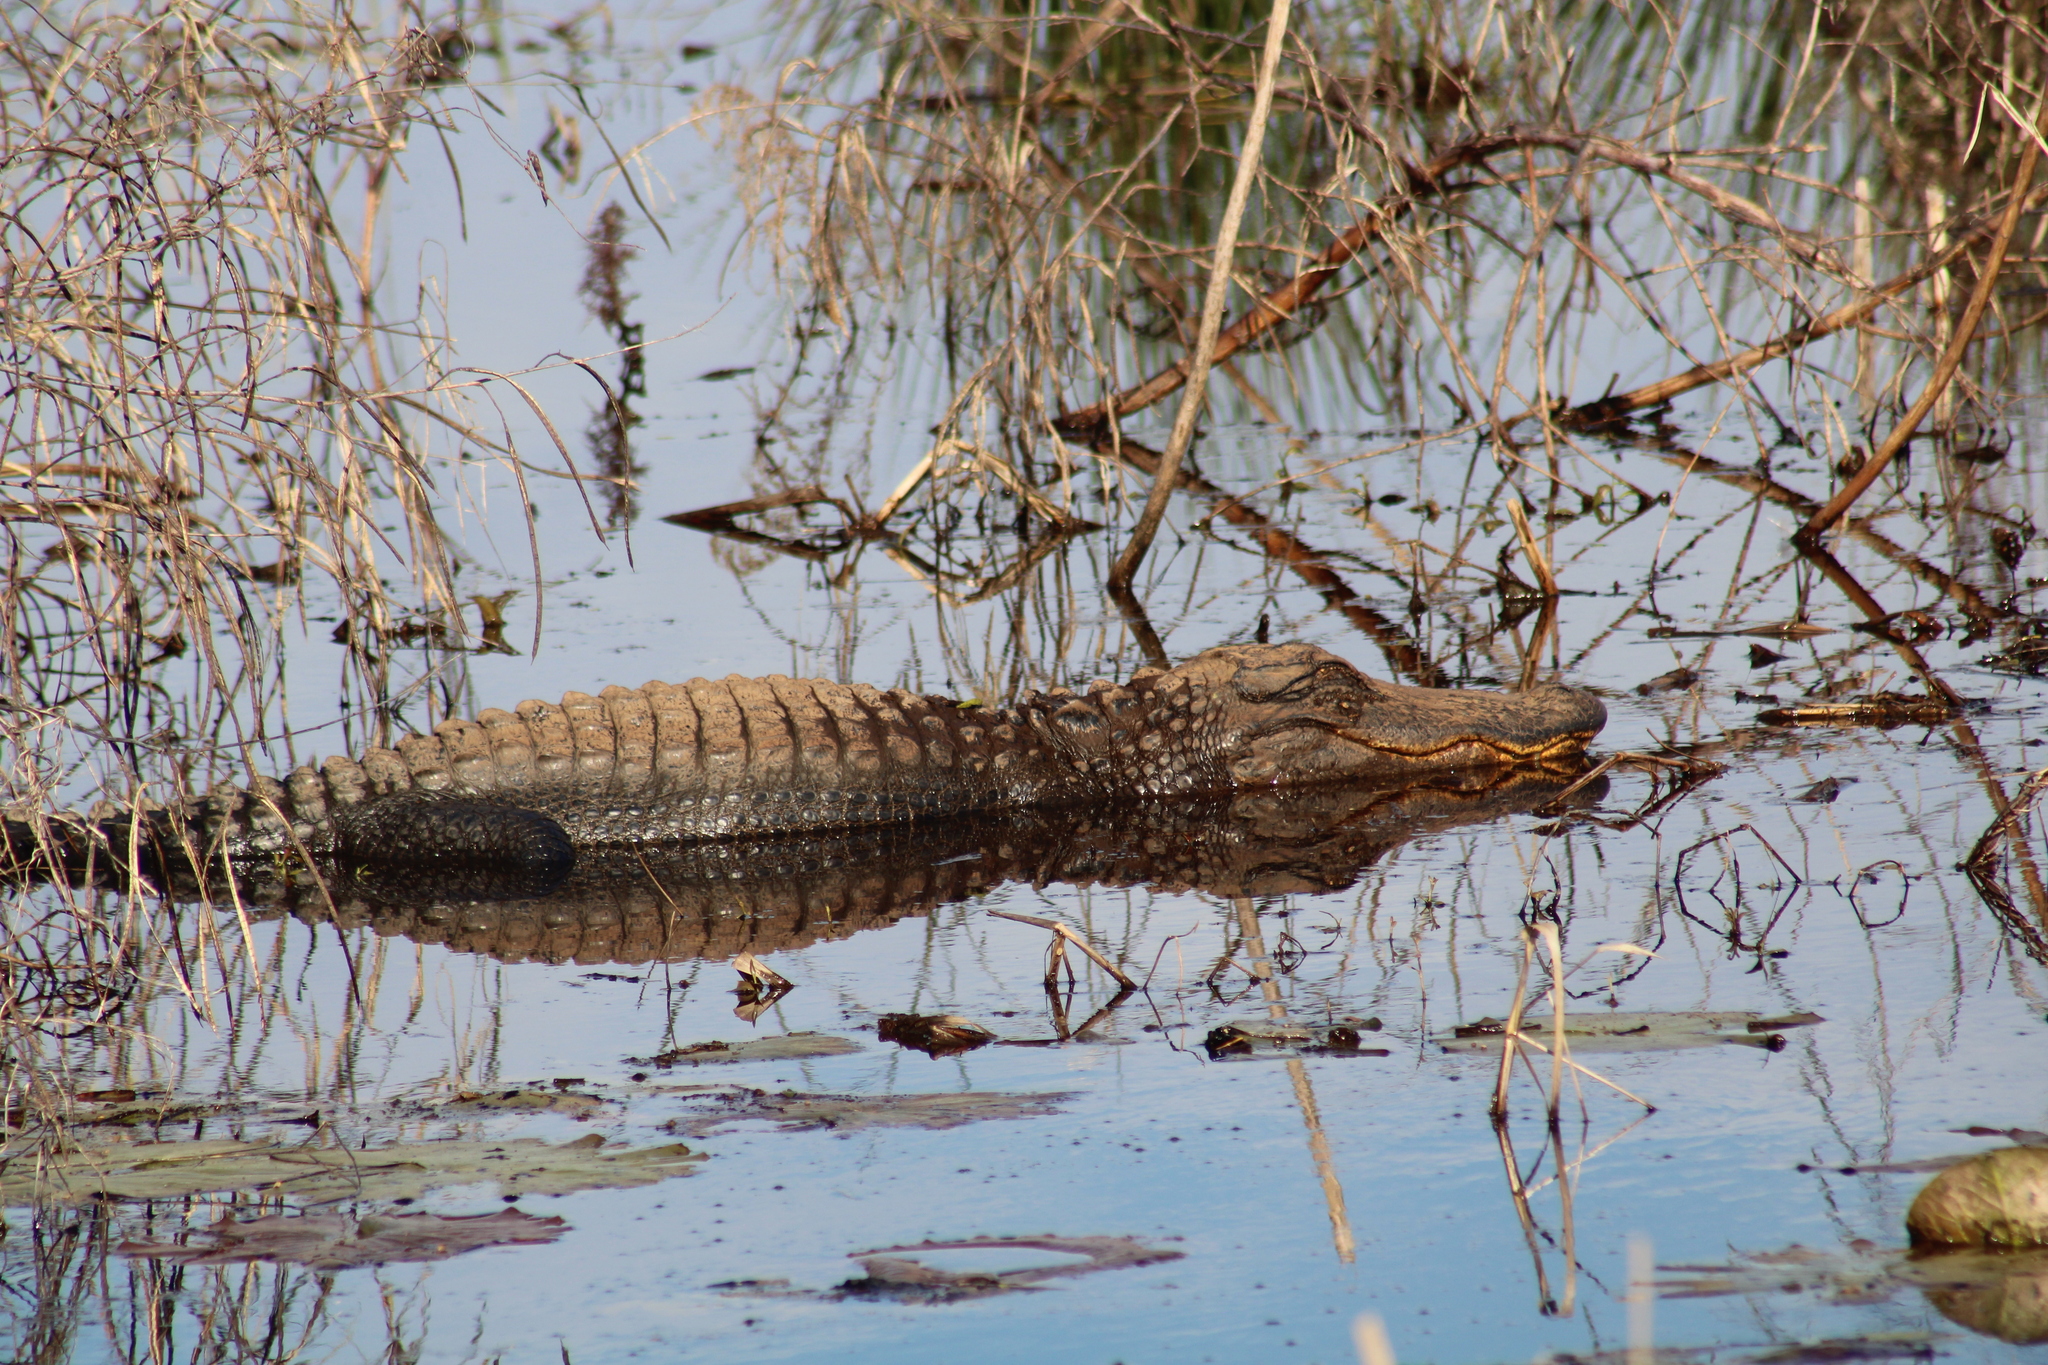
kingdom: Animalia
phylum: Chordata
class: Crocodylia
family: Alligatoridae
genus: Alligator
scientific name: Alligator mississippiensis
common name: American alligator
